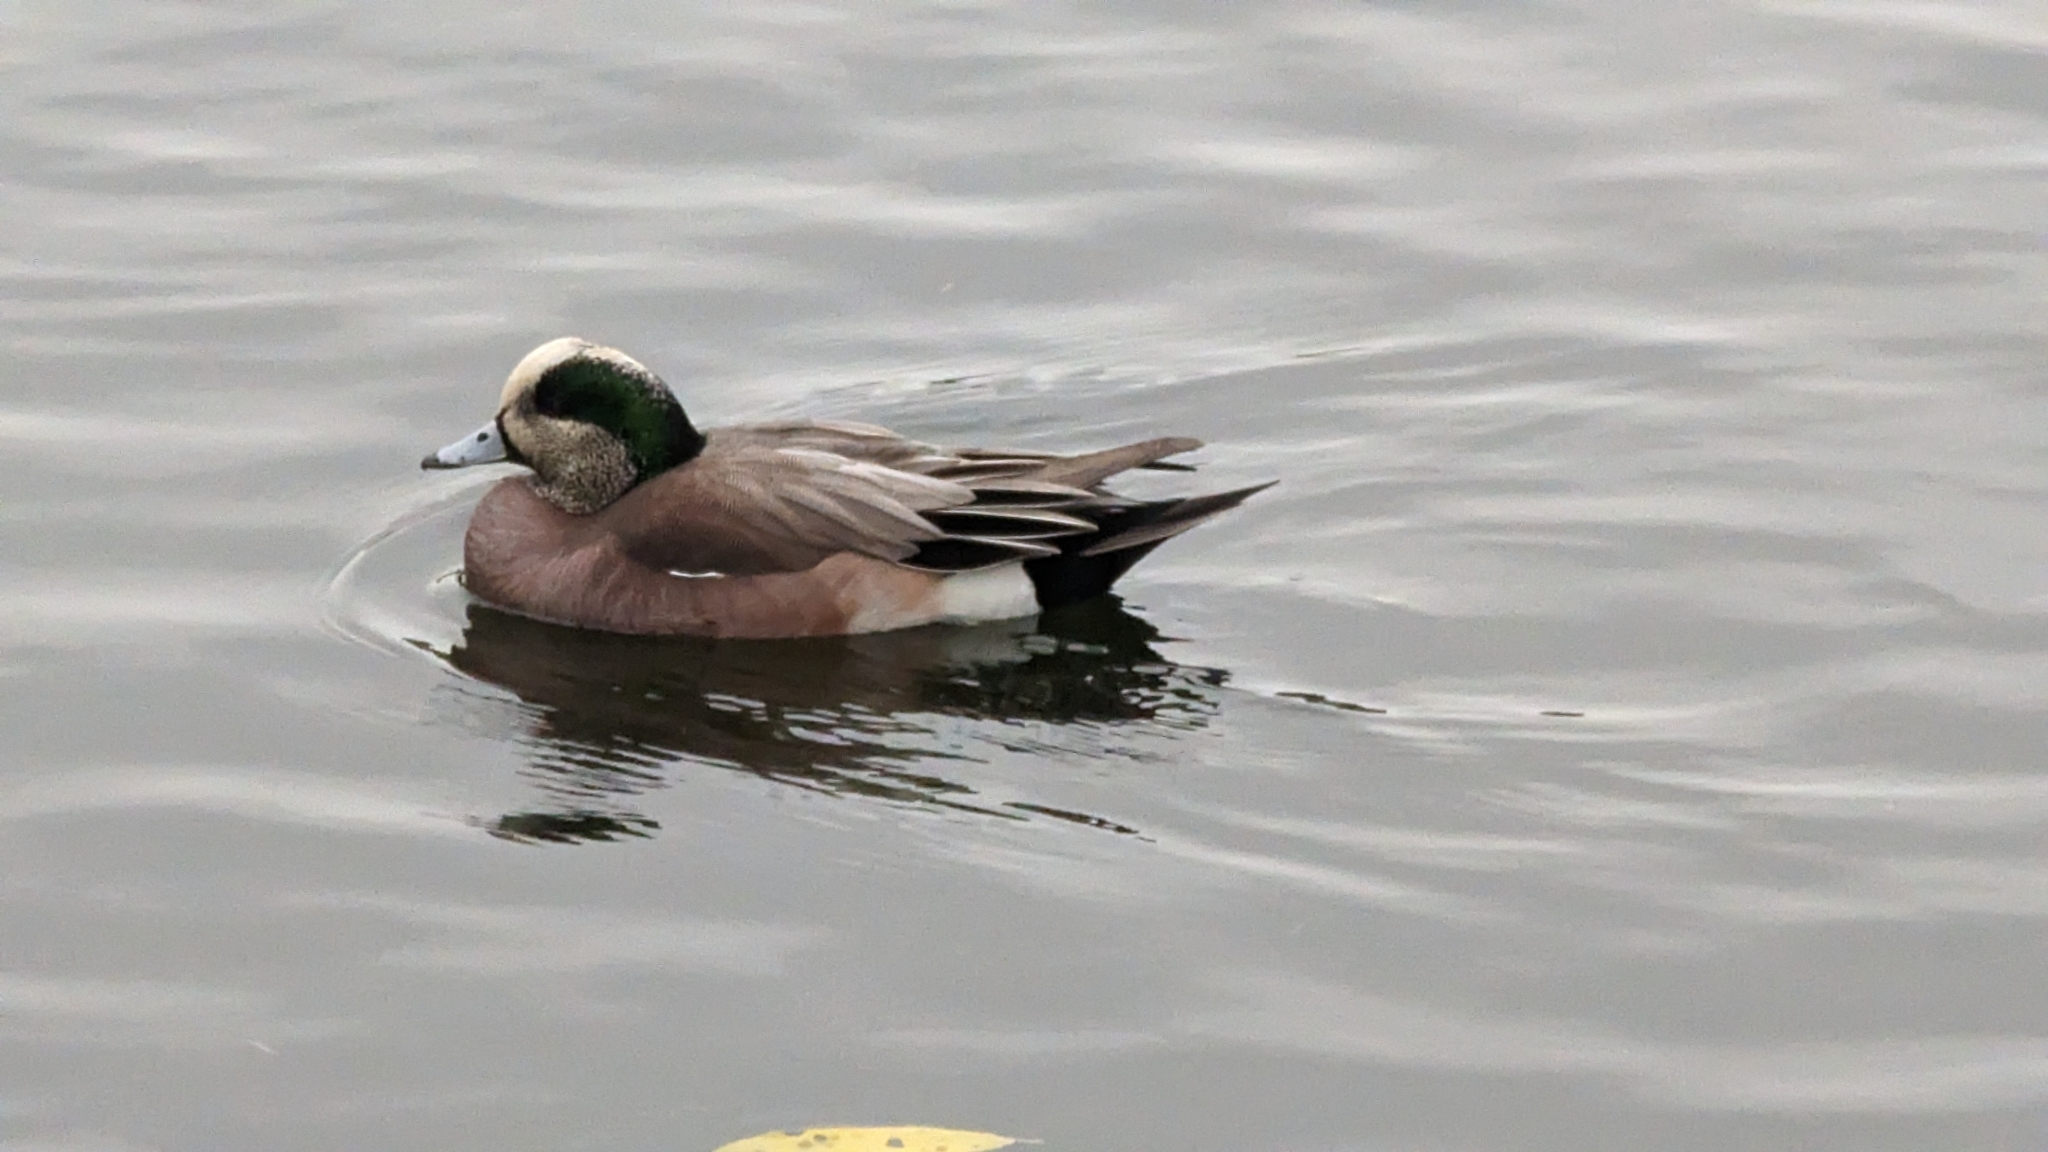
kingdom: Animalia
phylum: Chordata
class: Aves
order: Anseriformes
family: Anatidae
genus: Mareca
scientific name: Mareca americana
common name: American wigeon
